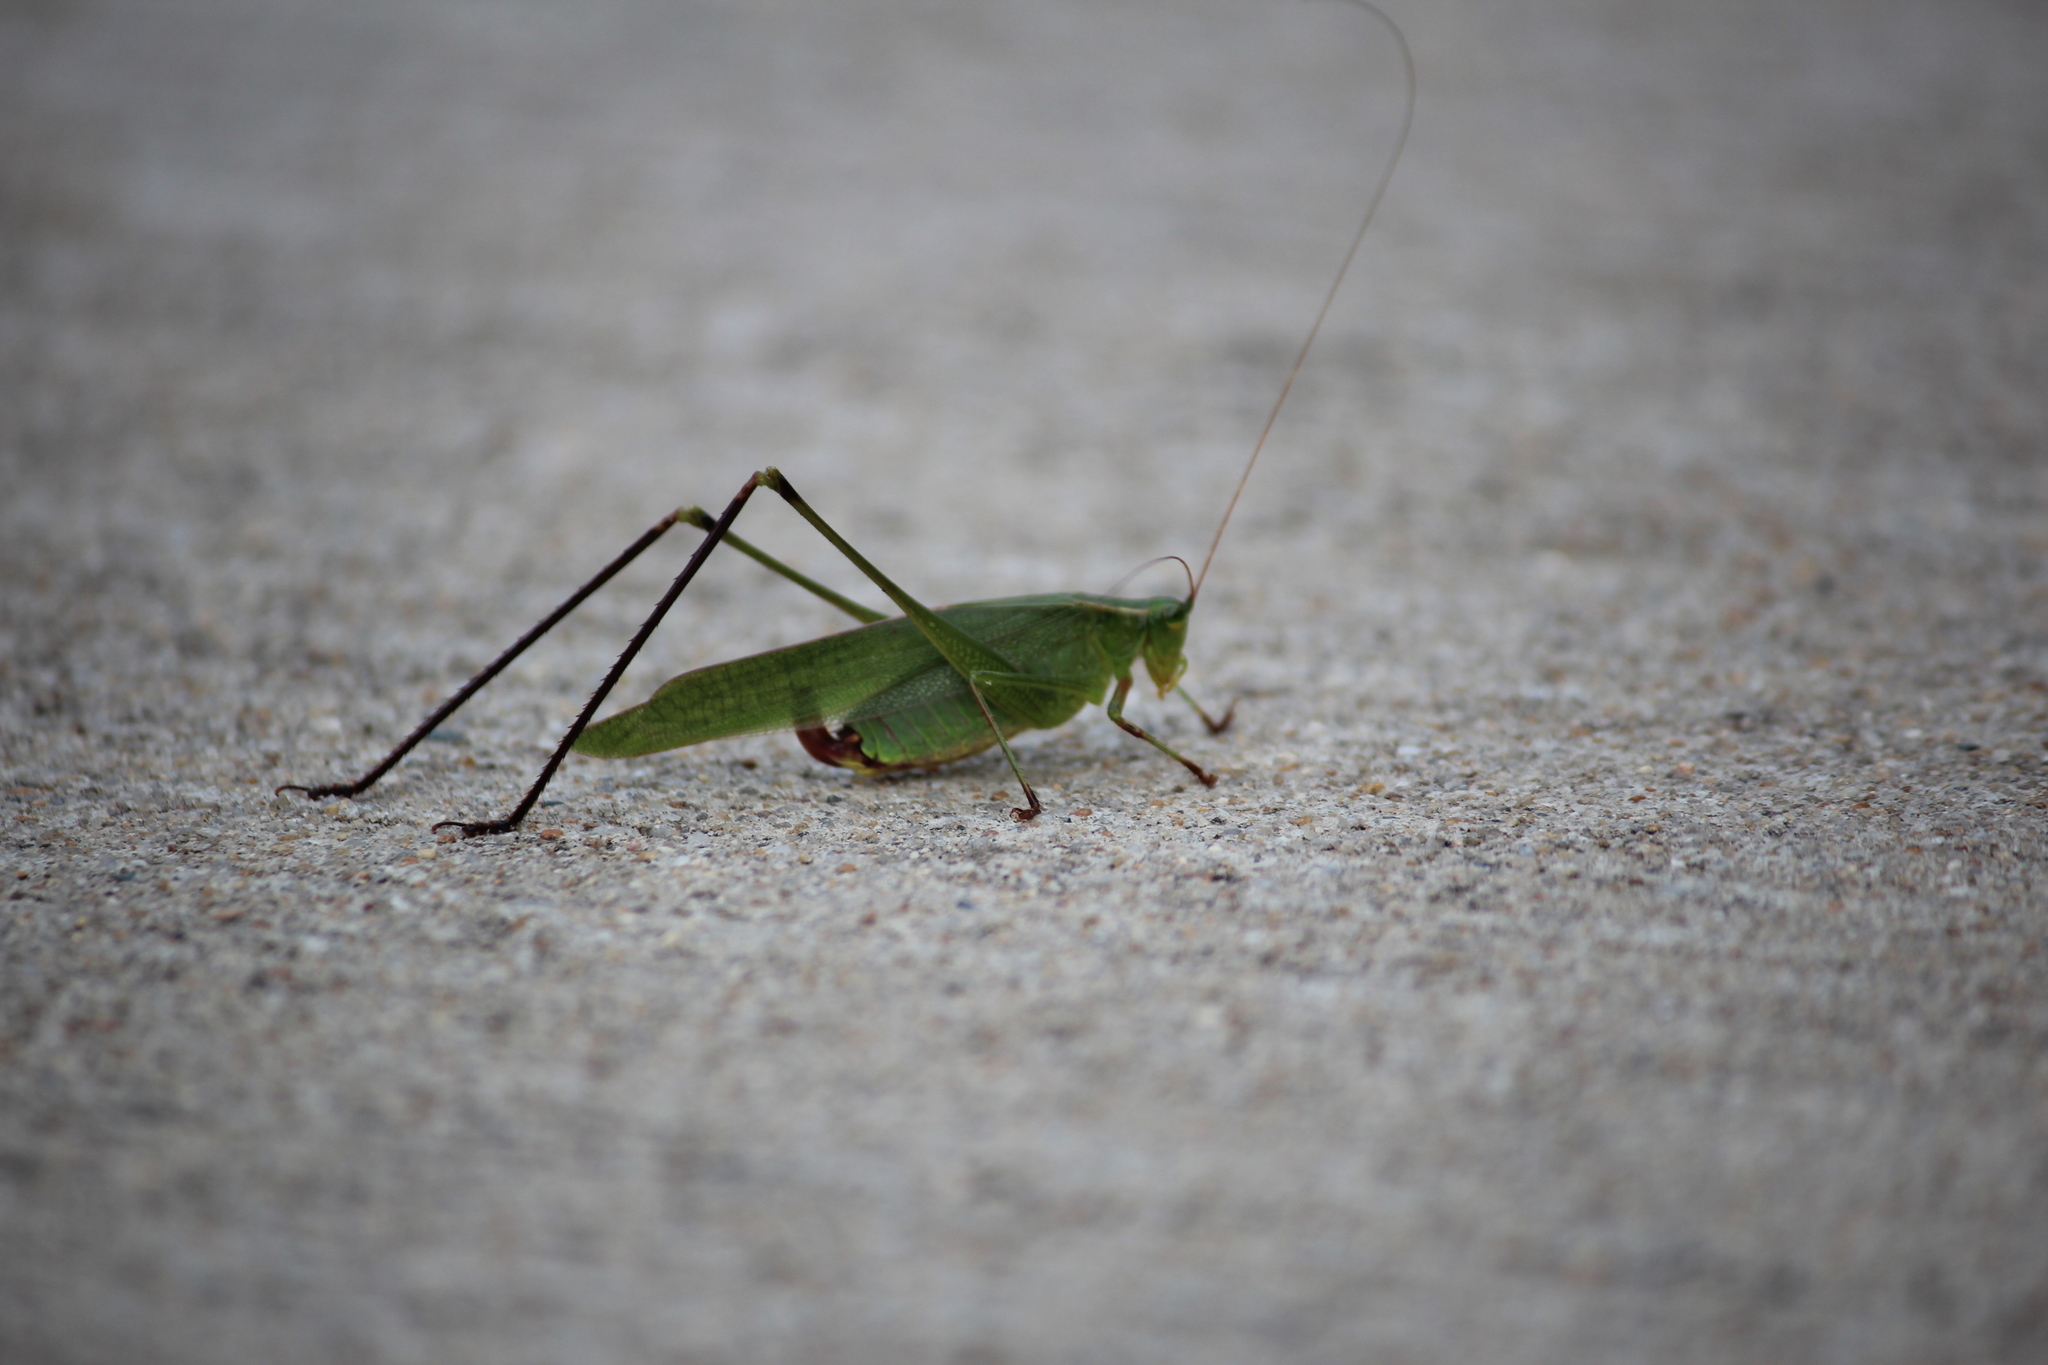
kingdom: Animalia
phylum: Arthropoda
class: Insecta
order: Orthoptera
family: Tettigoniidae
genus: Scudderia
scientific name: Scudderia furcata
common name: Fork-tailed bush katydid
